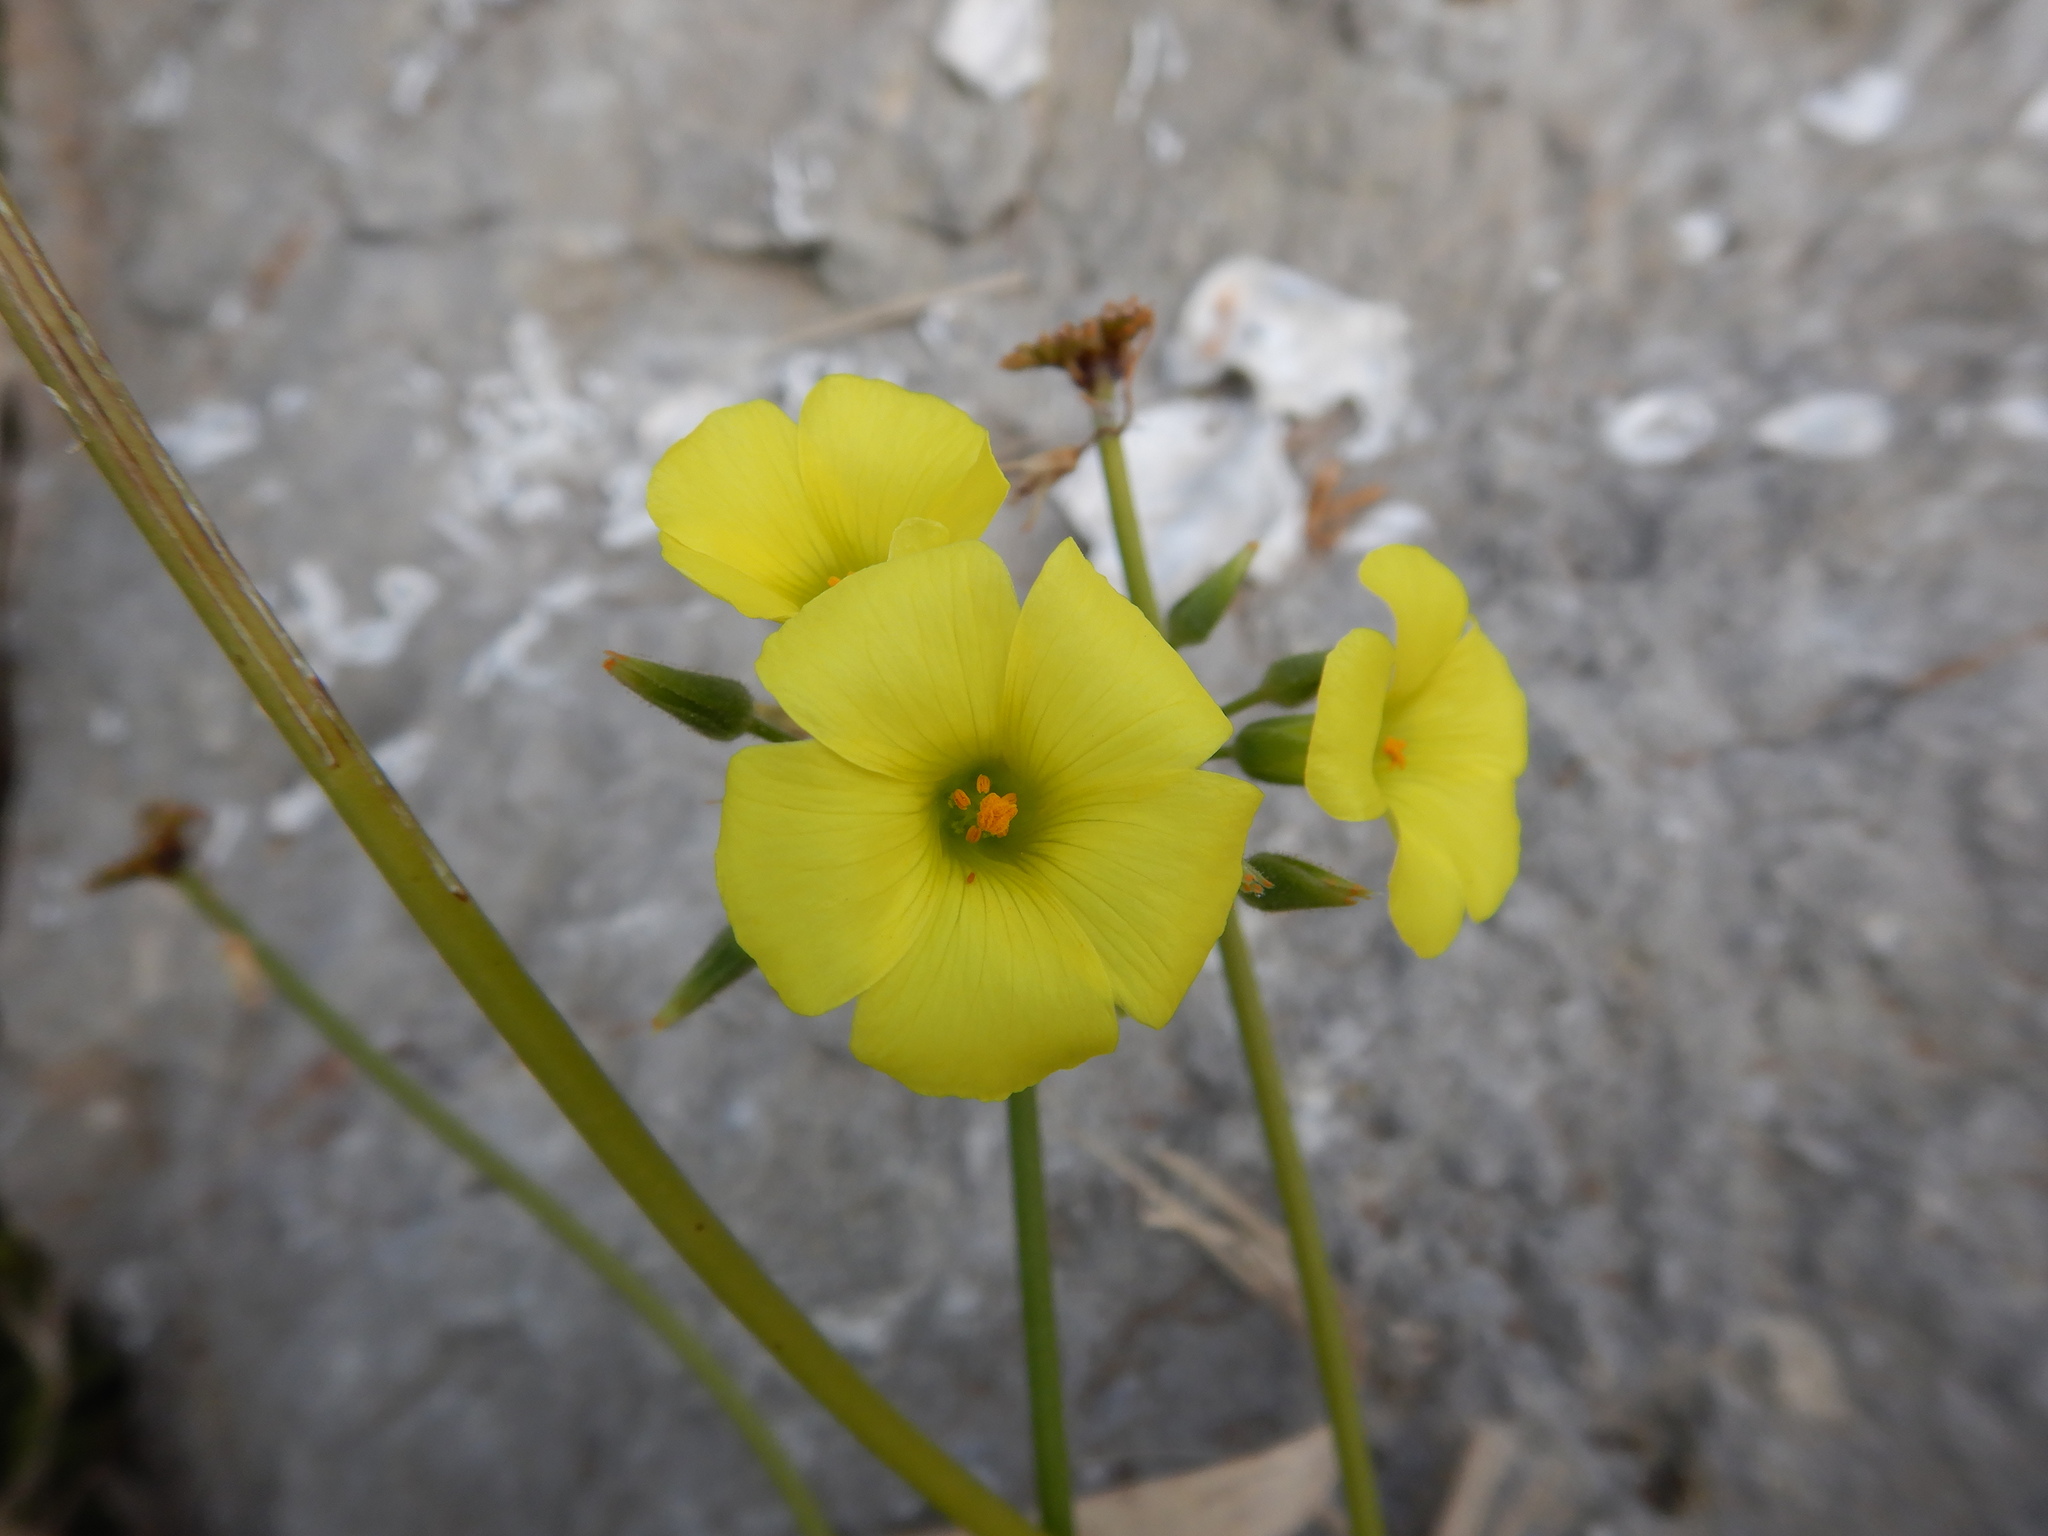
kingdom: Plantae
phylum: Tracheophyta
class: Magnoliopsida
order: Oxalidales
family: Oxalidaceae
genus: Oxalis
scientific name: Oxalis pes-caprae
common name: Bermuda-buttercup
